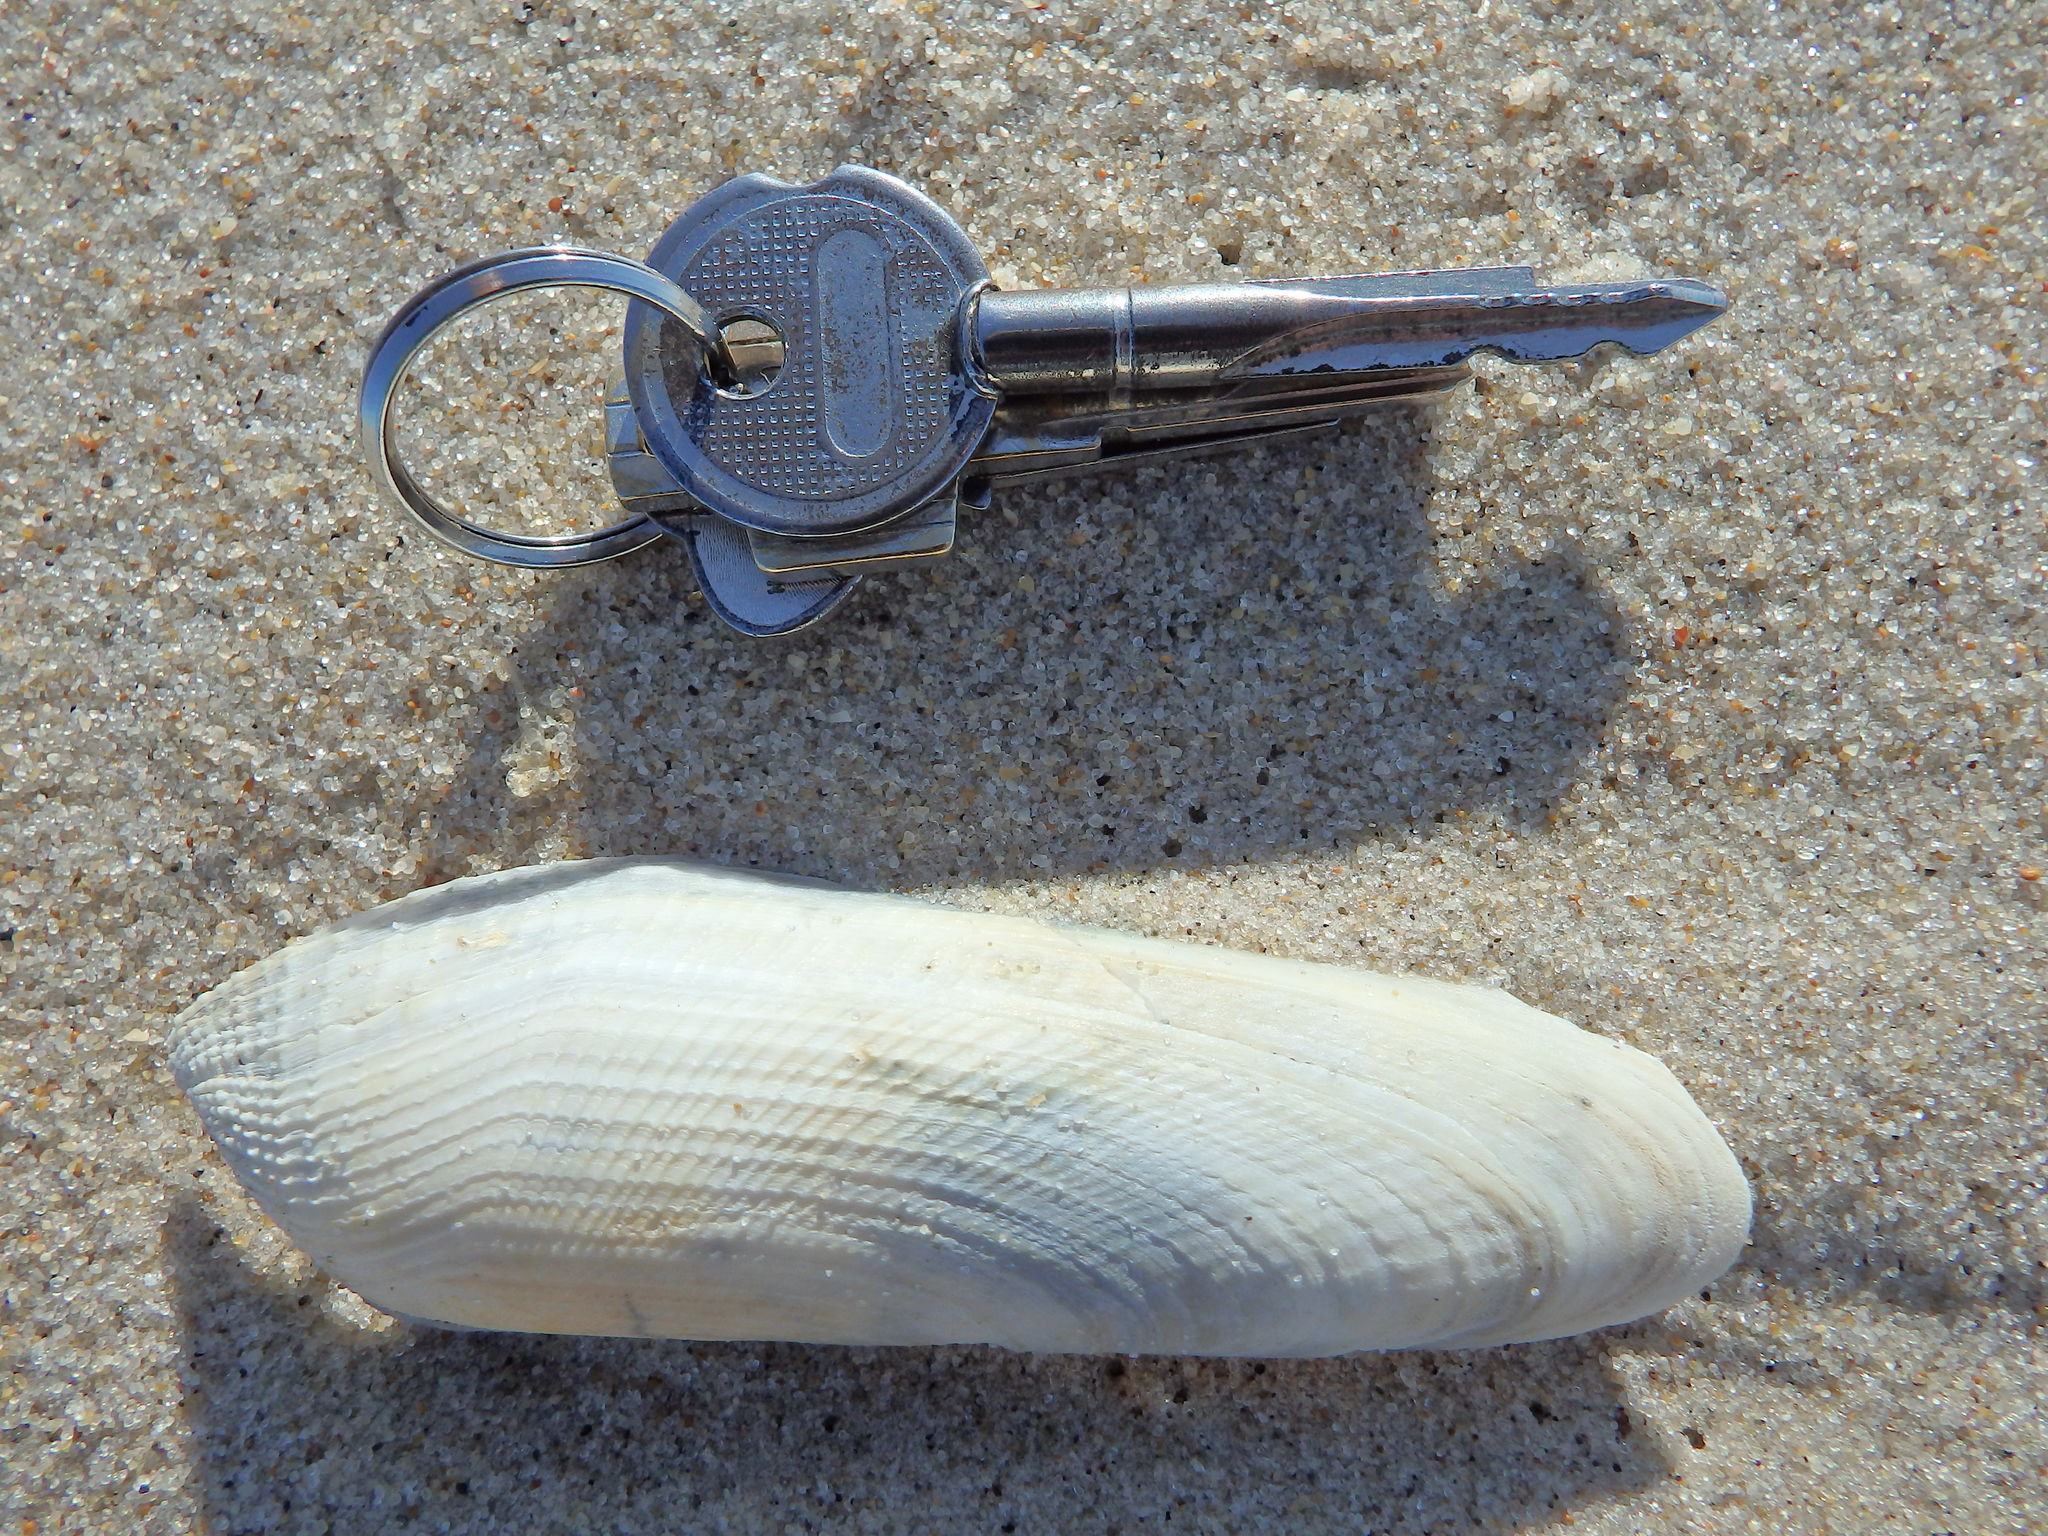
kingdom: Animalia
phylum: Mollusca
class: Bivalvia
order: Myida
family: Pholadidae
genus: Pholas
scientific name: Pholas dactylus
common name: Common piddock
